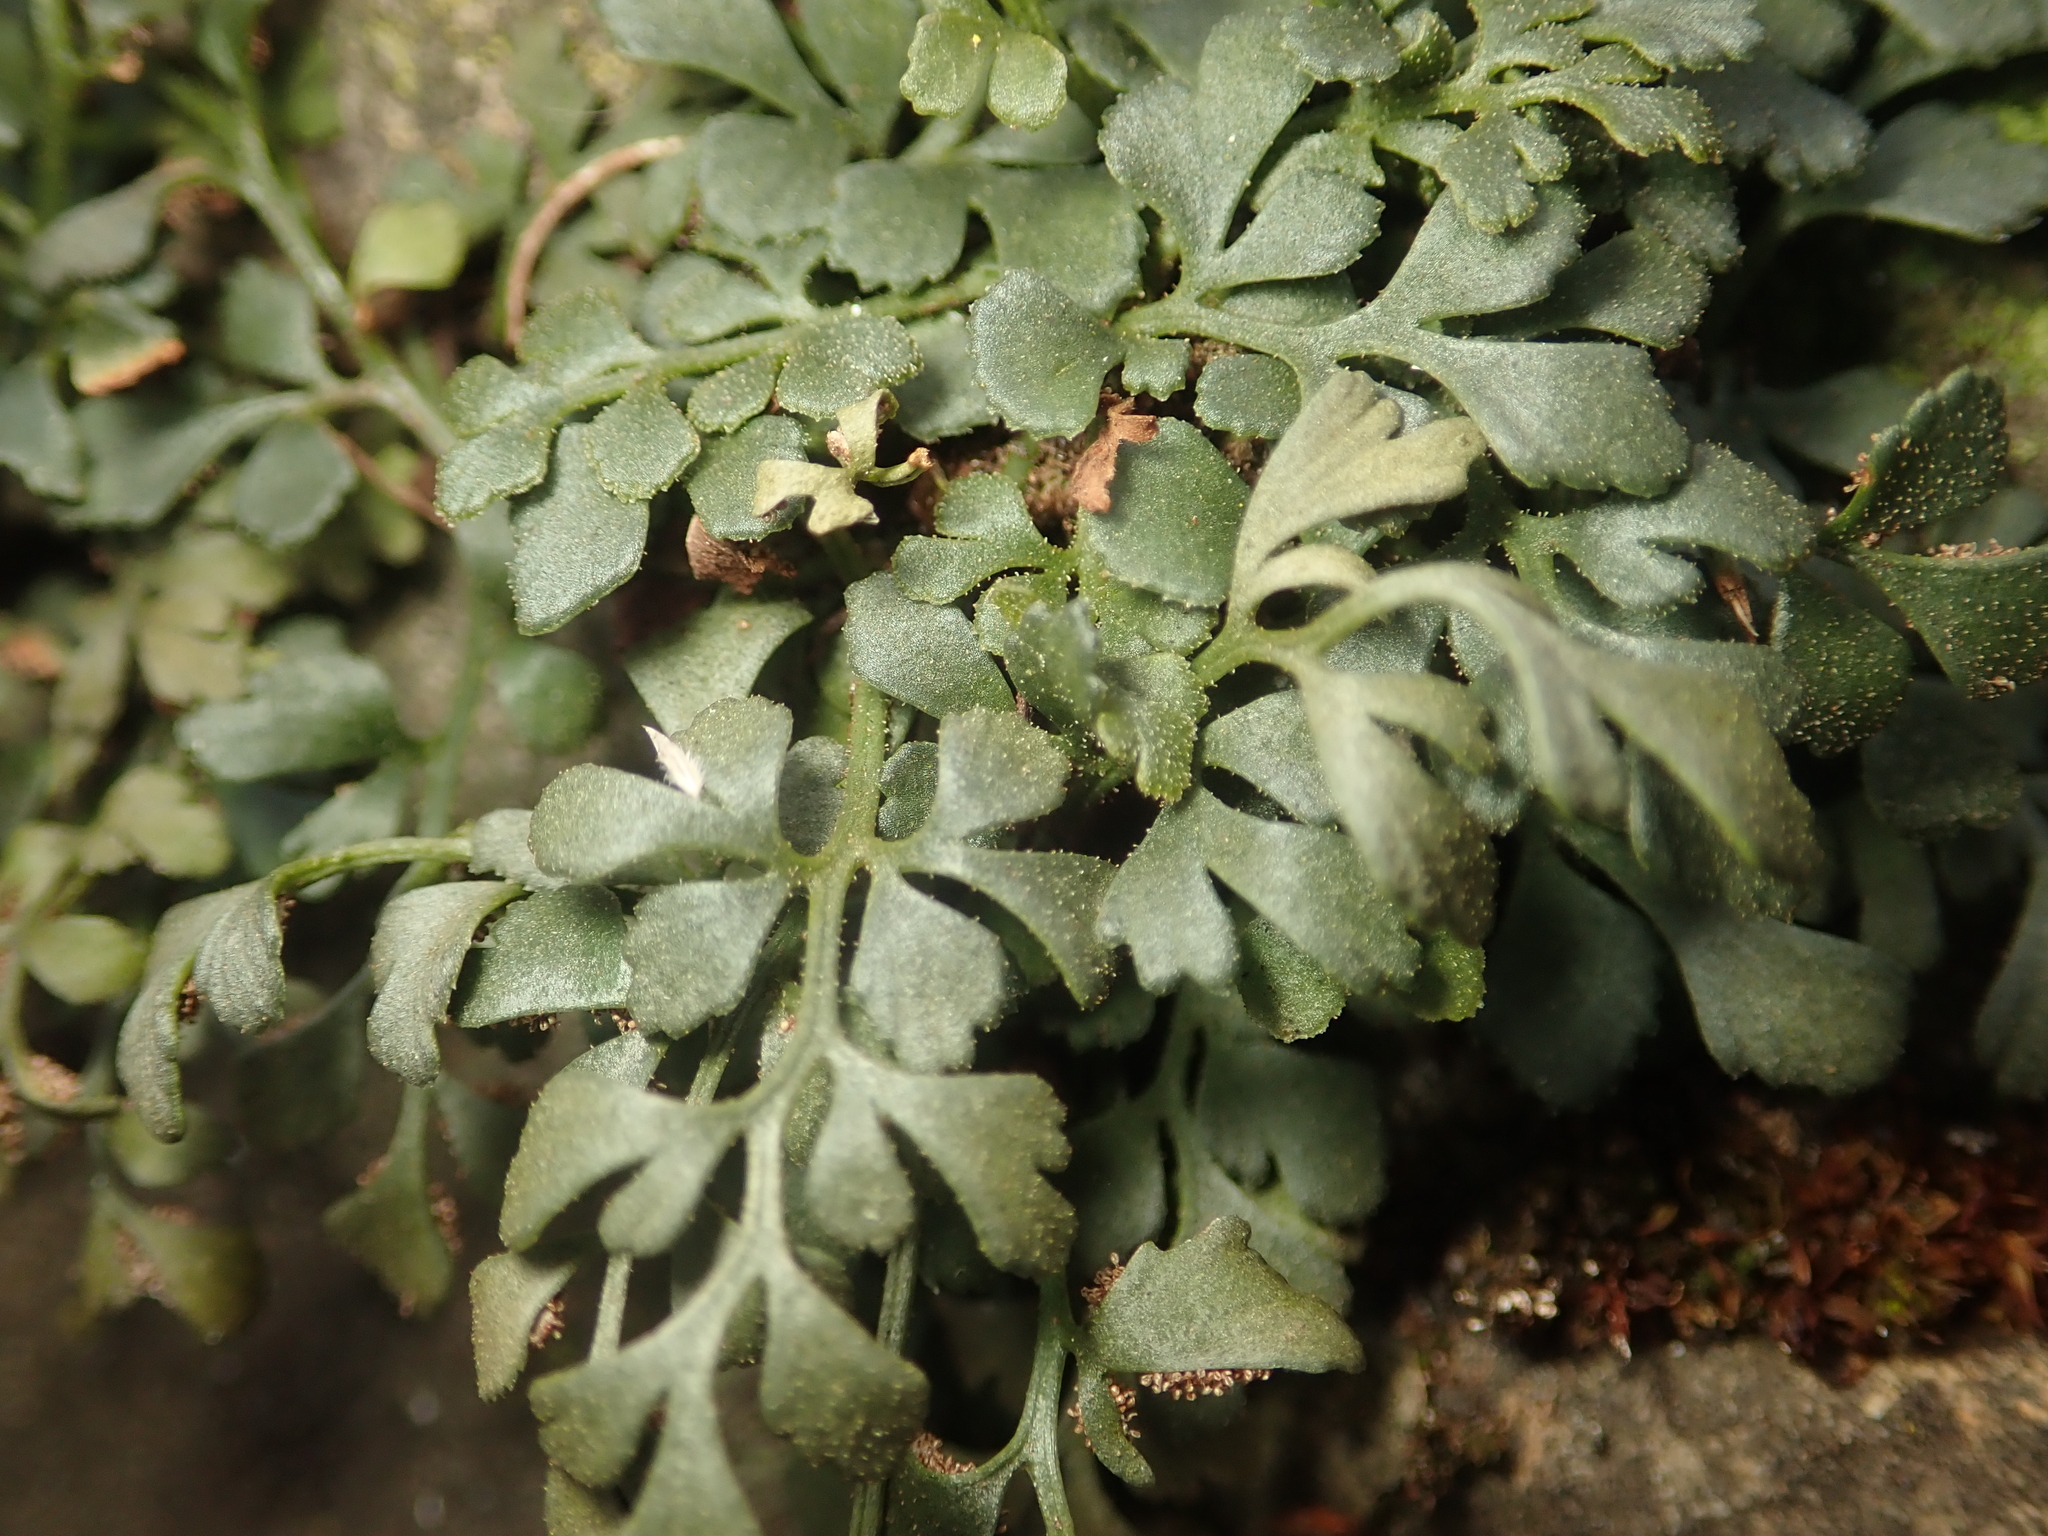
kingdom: Plantae
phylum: Tracheophyta
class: Polypodiopsida
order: Polypodiales
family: Aspleniaceae
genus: Asplenium
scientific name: Asplenium ruta-muraria
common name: Wall-rue
